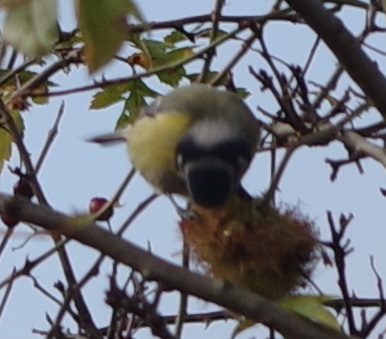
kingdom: Animalia
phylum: Chordata
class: Aves
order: Passeriformes
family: Paridae
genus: Cyanistes
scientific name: Cyanistes caeruleus
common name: Eurasian blue tit
